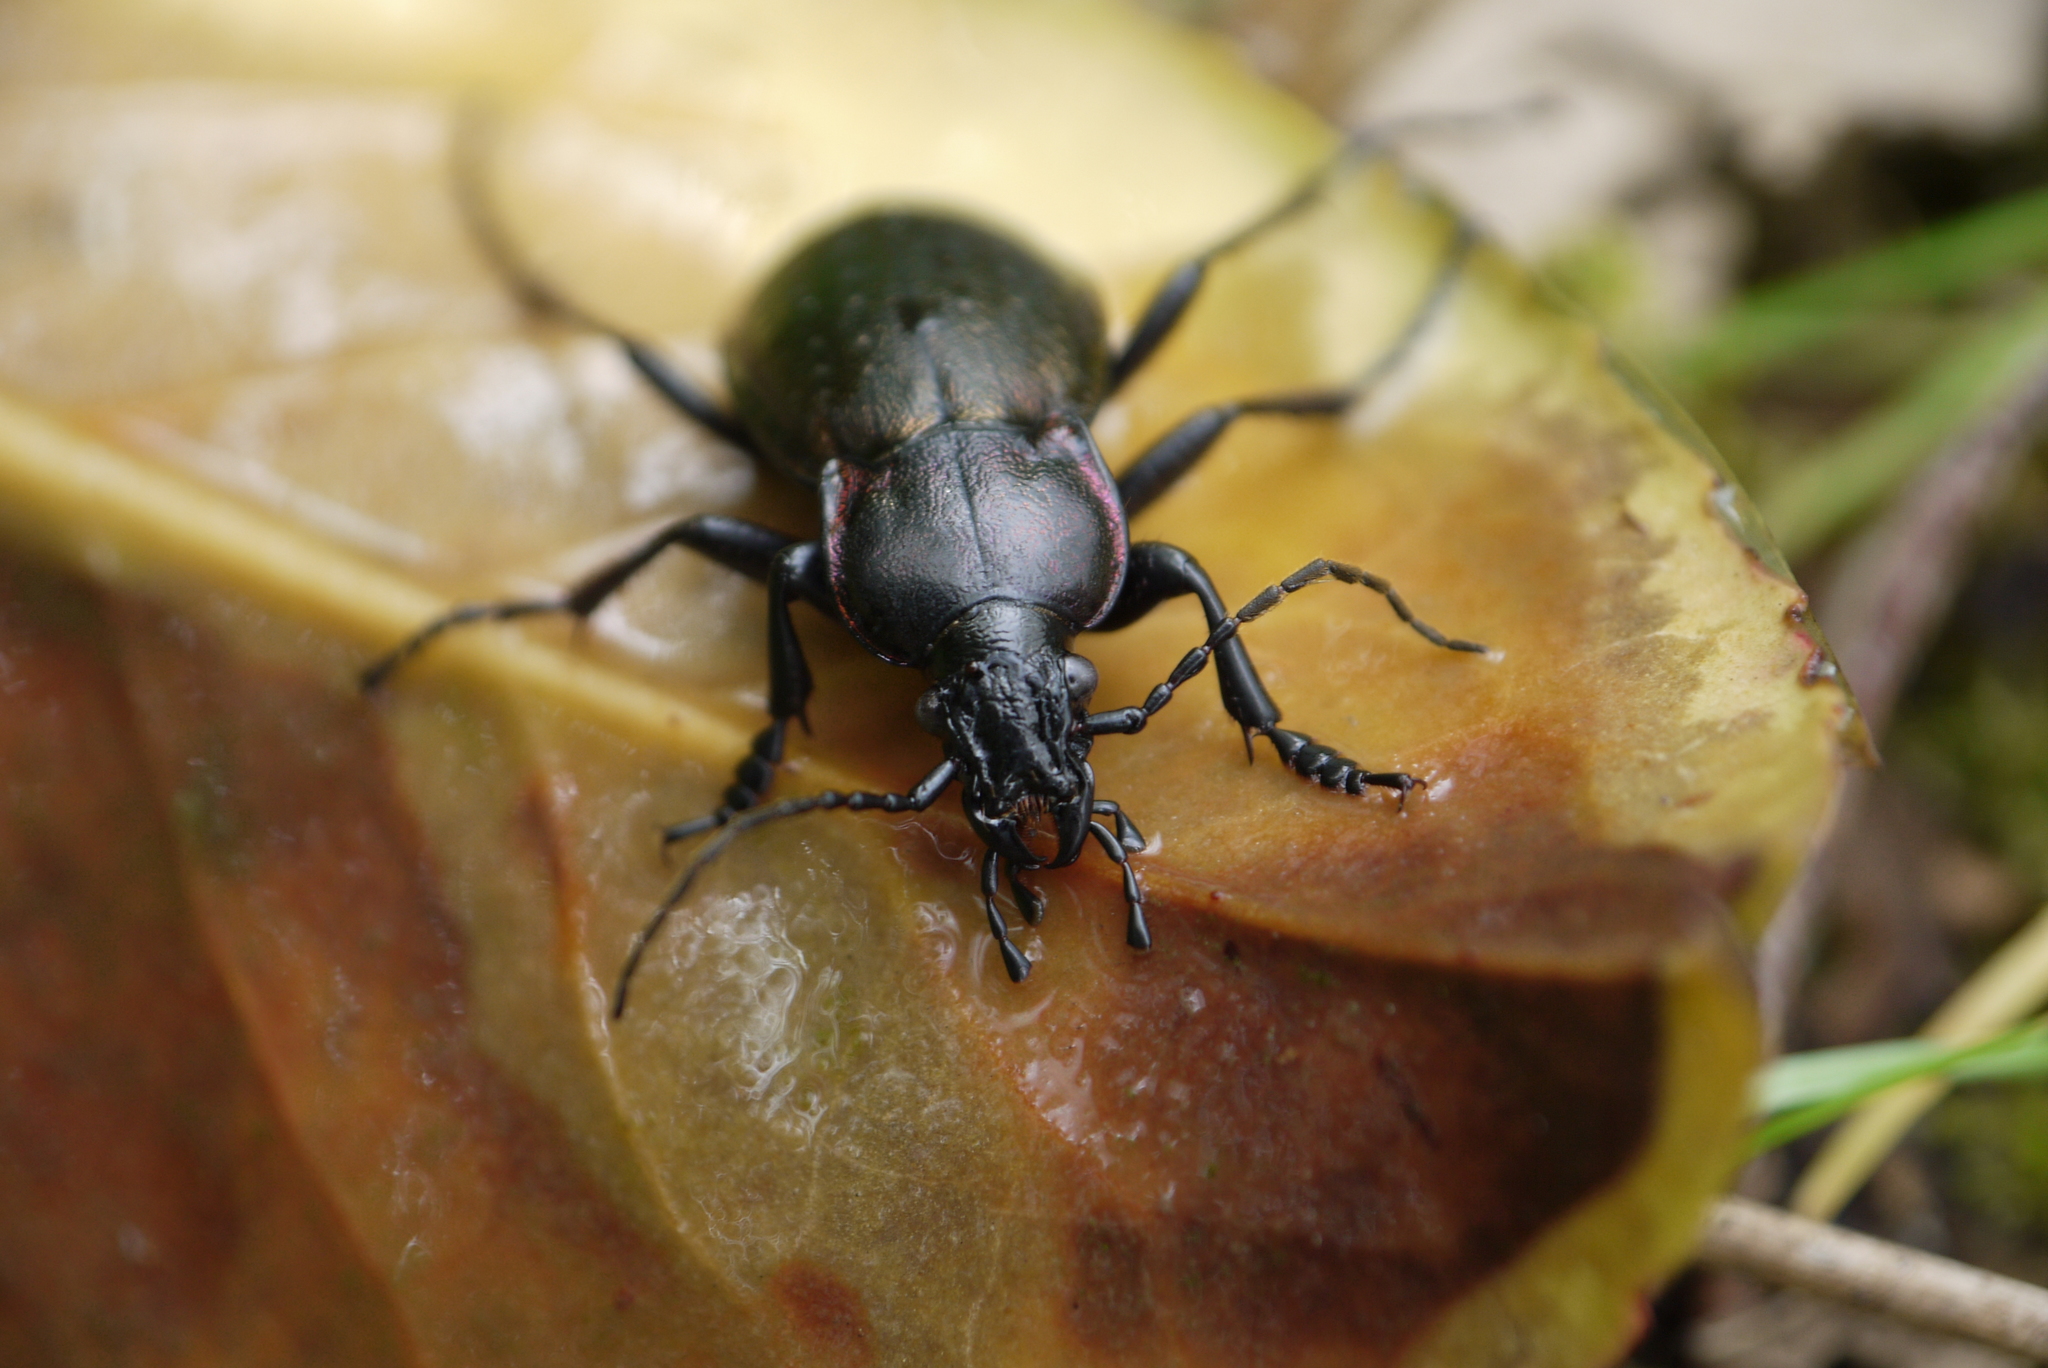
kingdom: Animalia
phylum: Arthropoda
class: Insecta
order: Coleoptera
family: Carabidae
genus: Carabus
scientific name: Carabus nemoralis
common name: European ground beetle
